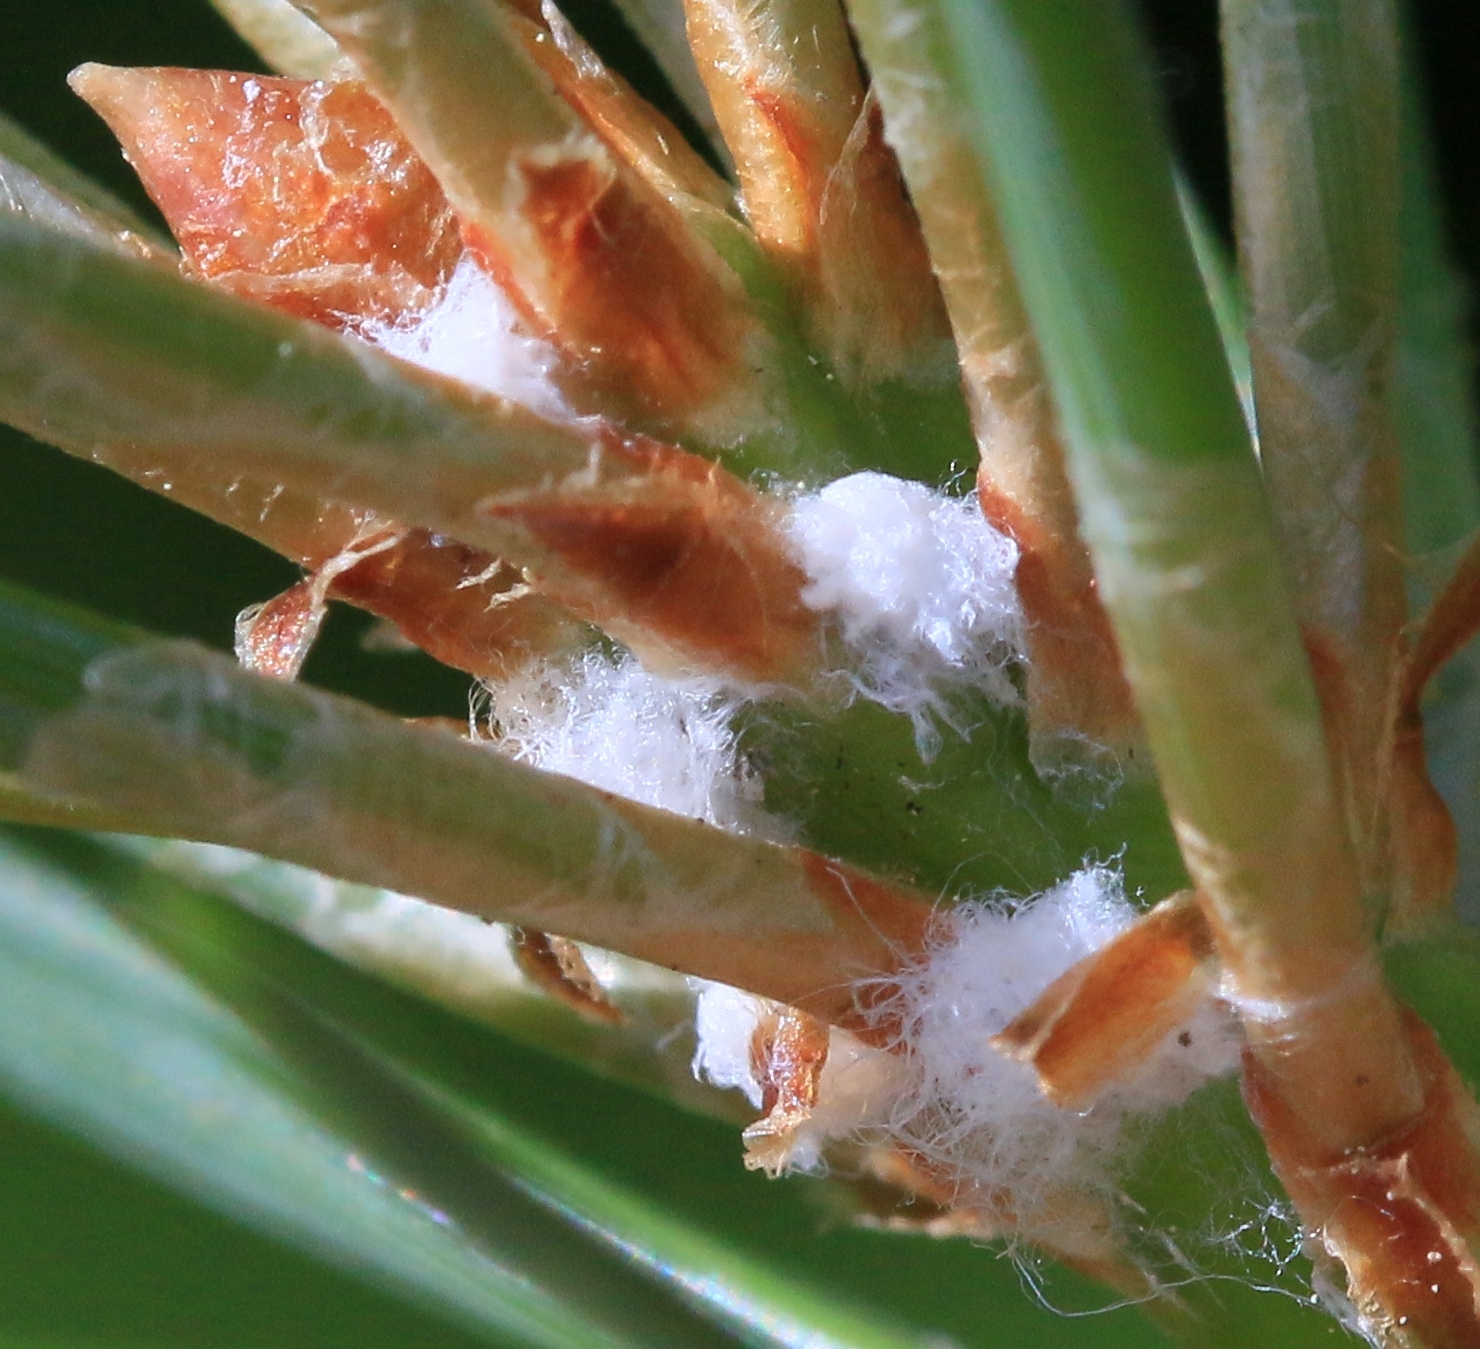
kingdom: Animalia
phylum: Arthropoda
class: Insecta
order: Hemiptera
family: Adelgidae
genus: Pineus
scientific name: Pineus pini
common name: Eurasian pine adelgid
